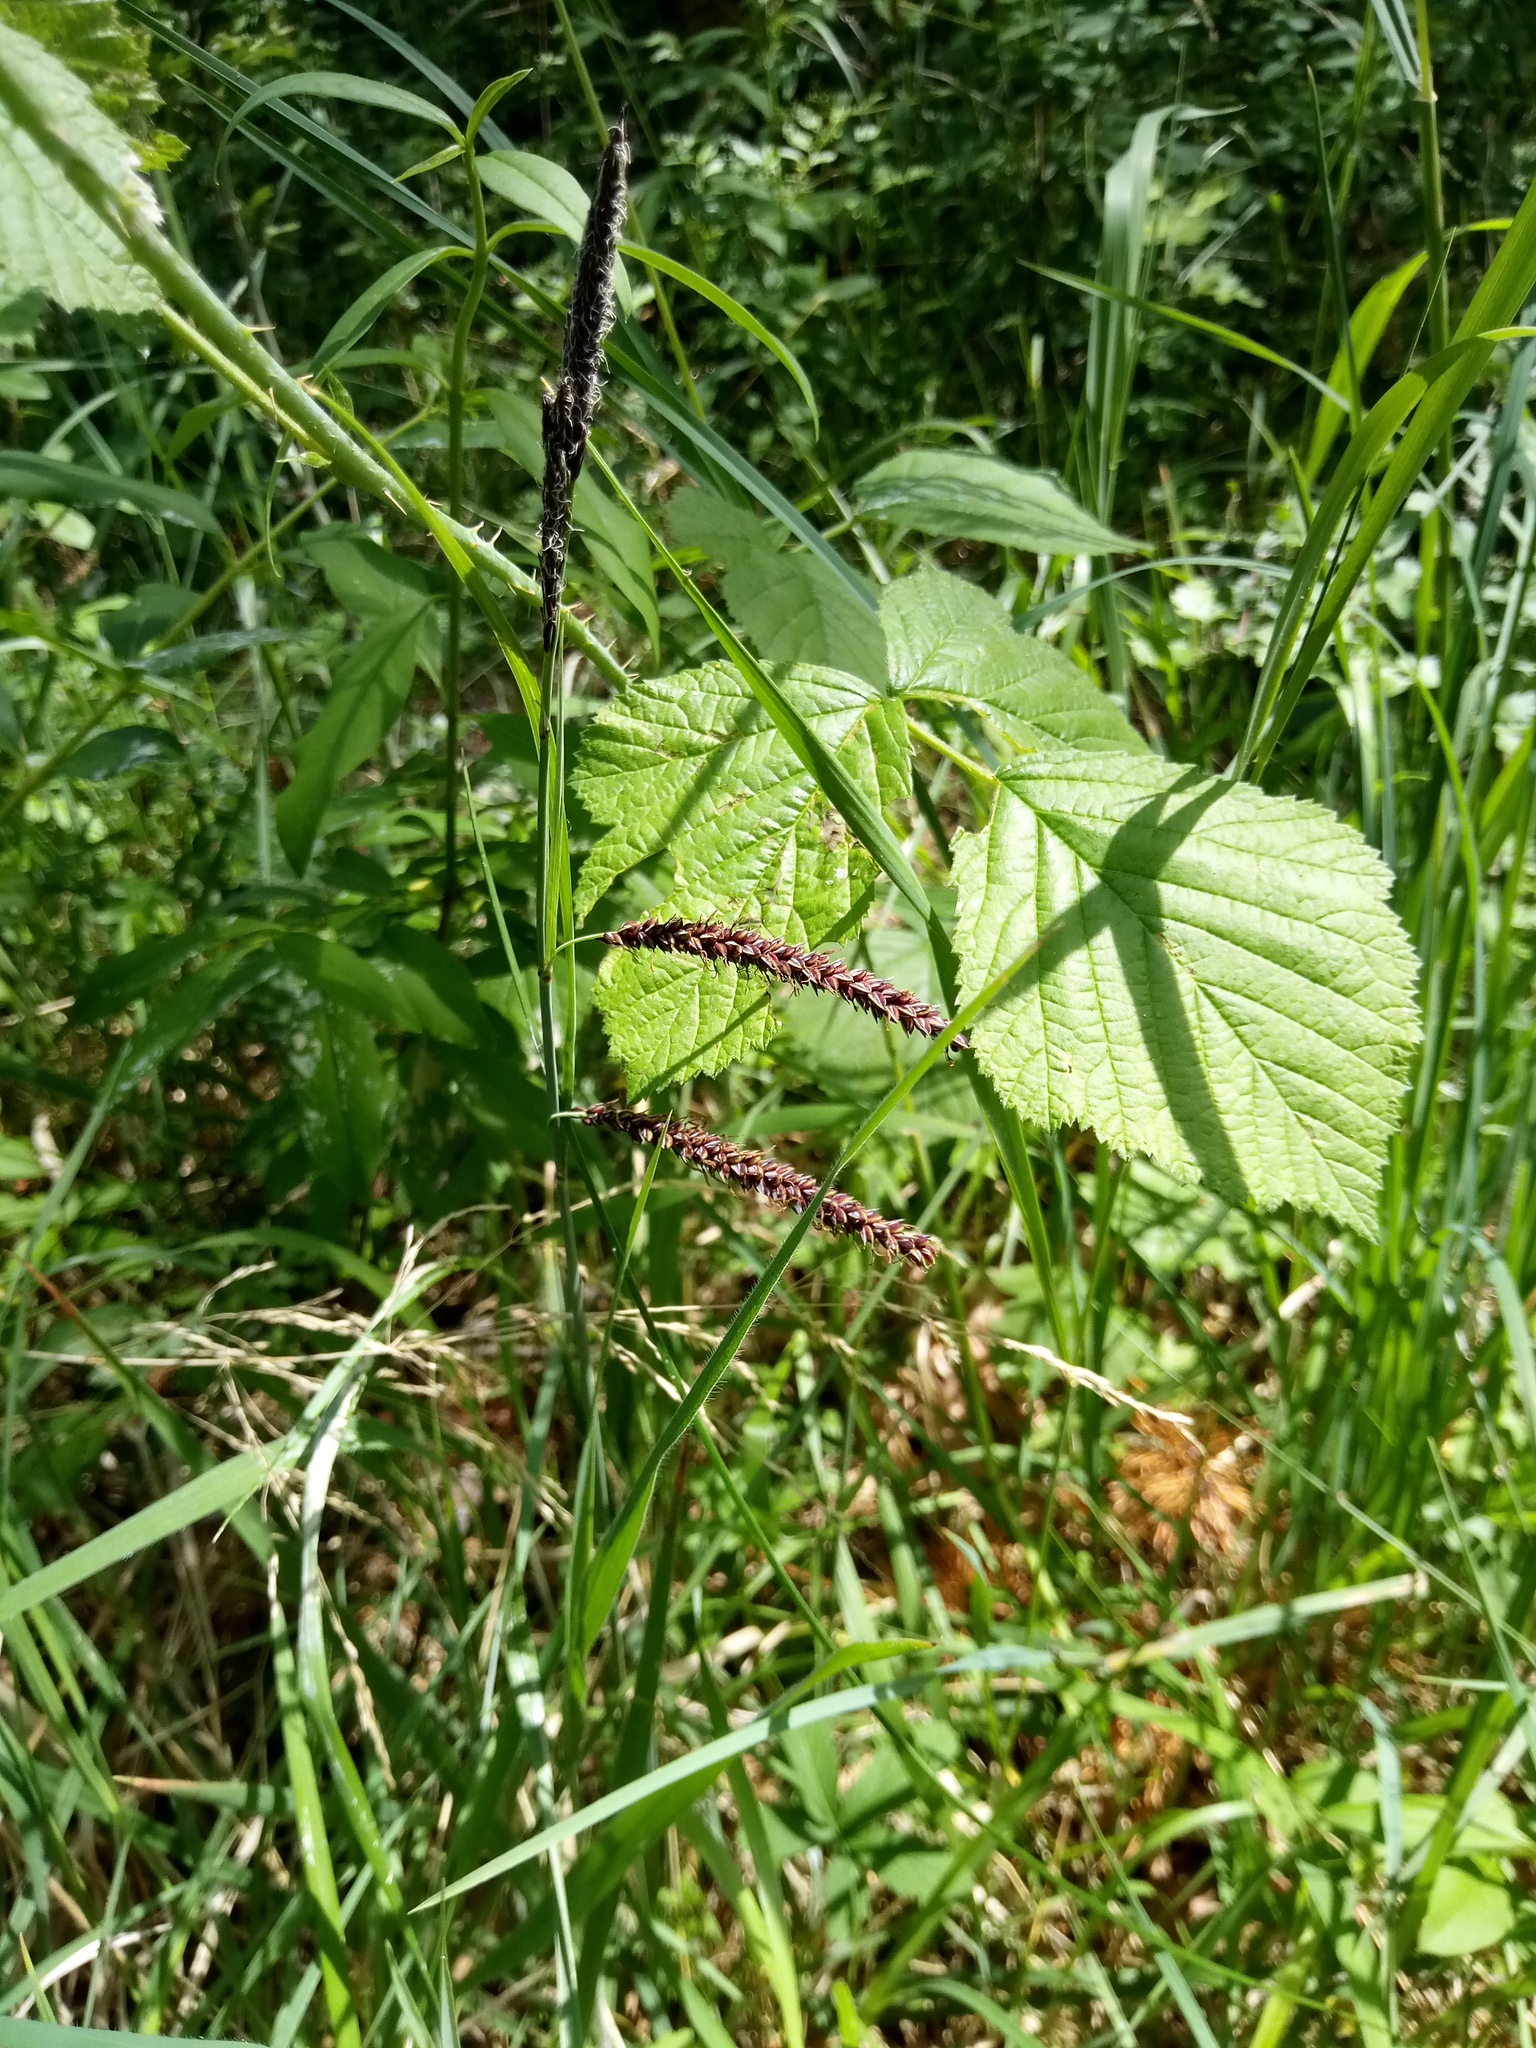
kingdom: Plantae
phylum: Tracheophyta
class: Liliopsida
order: Poales
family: Cyperaceae
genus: Carex
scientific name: Carex flacca
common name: Glaucous sedge
